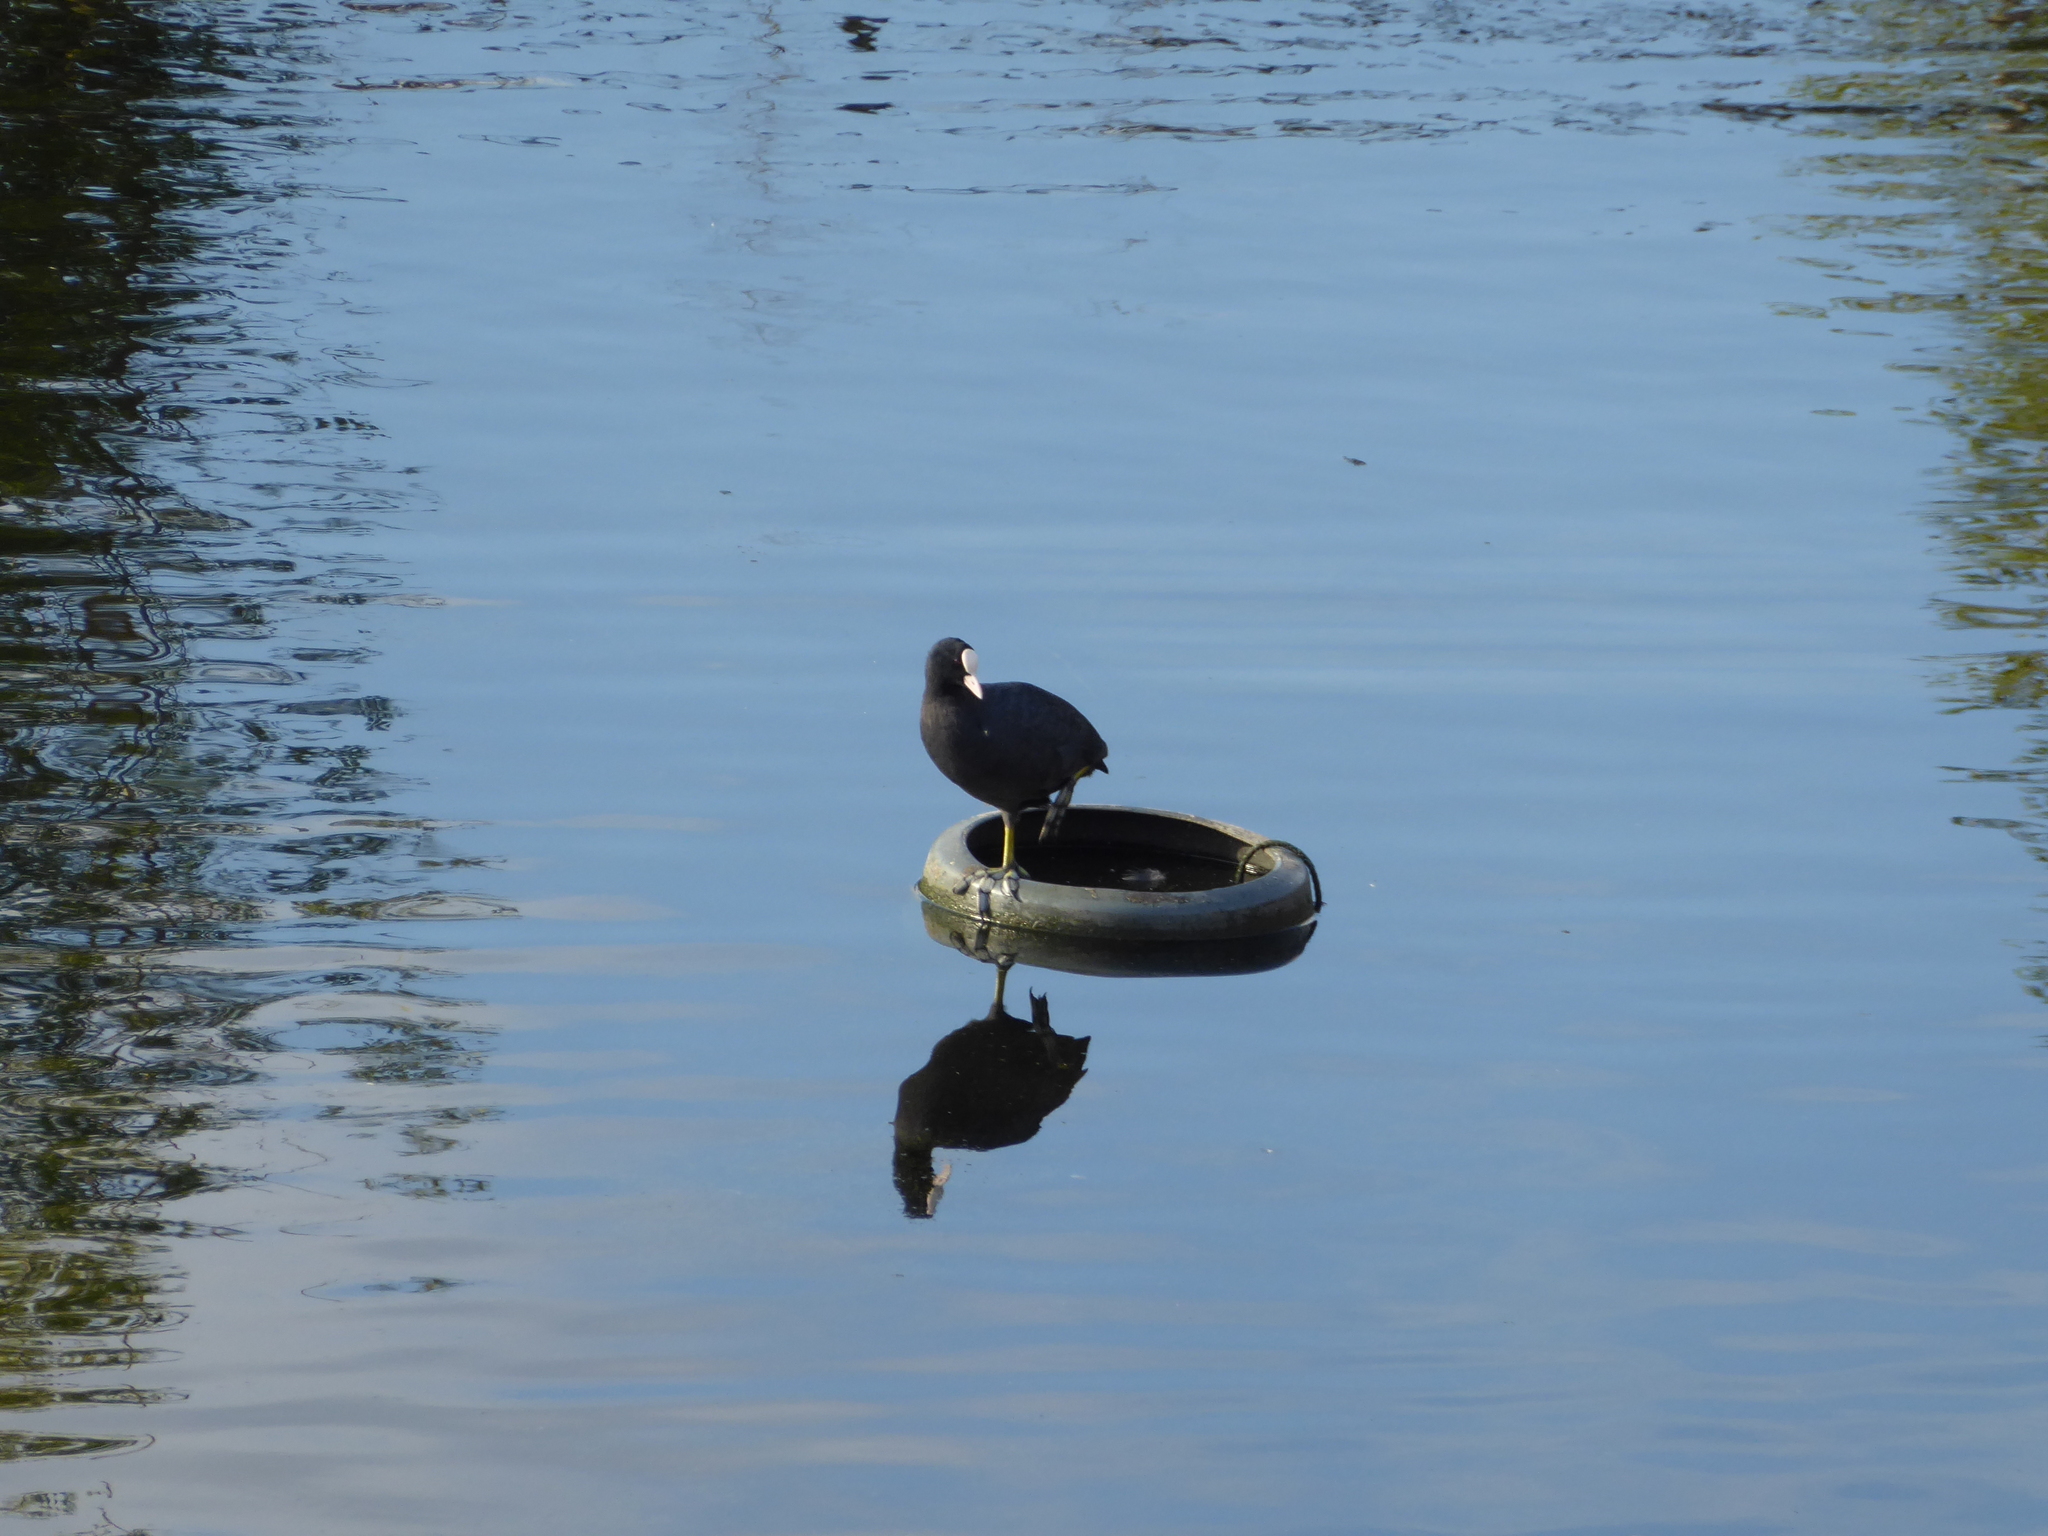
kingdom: Animalia
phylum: Chordata
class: Aves
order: Gruiformes
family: Rallidae
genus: Fulica
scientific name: Fulica atra
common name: Eurasian coot
